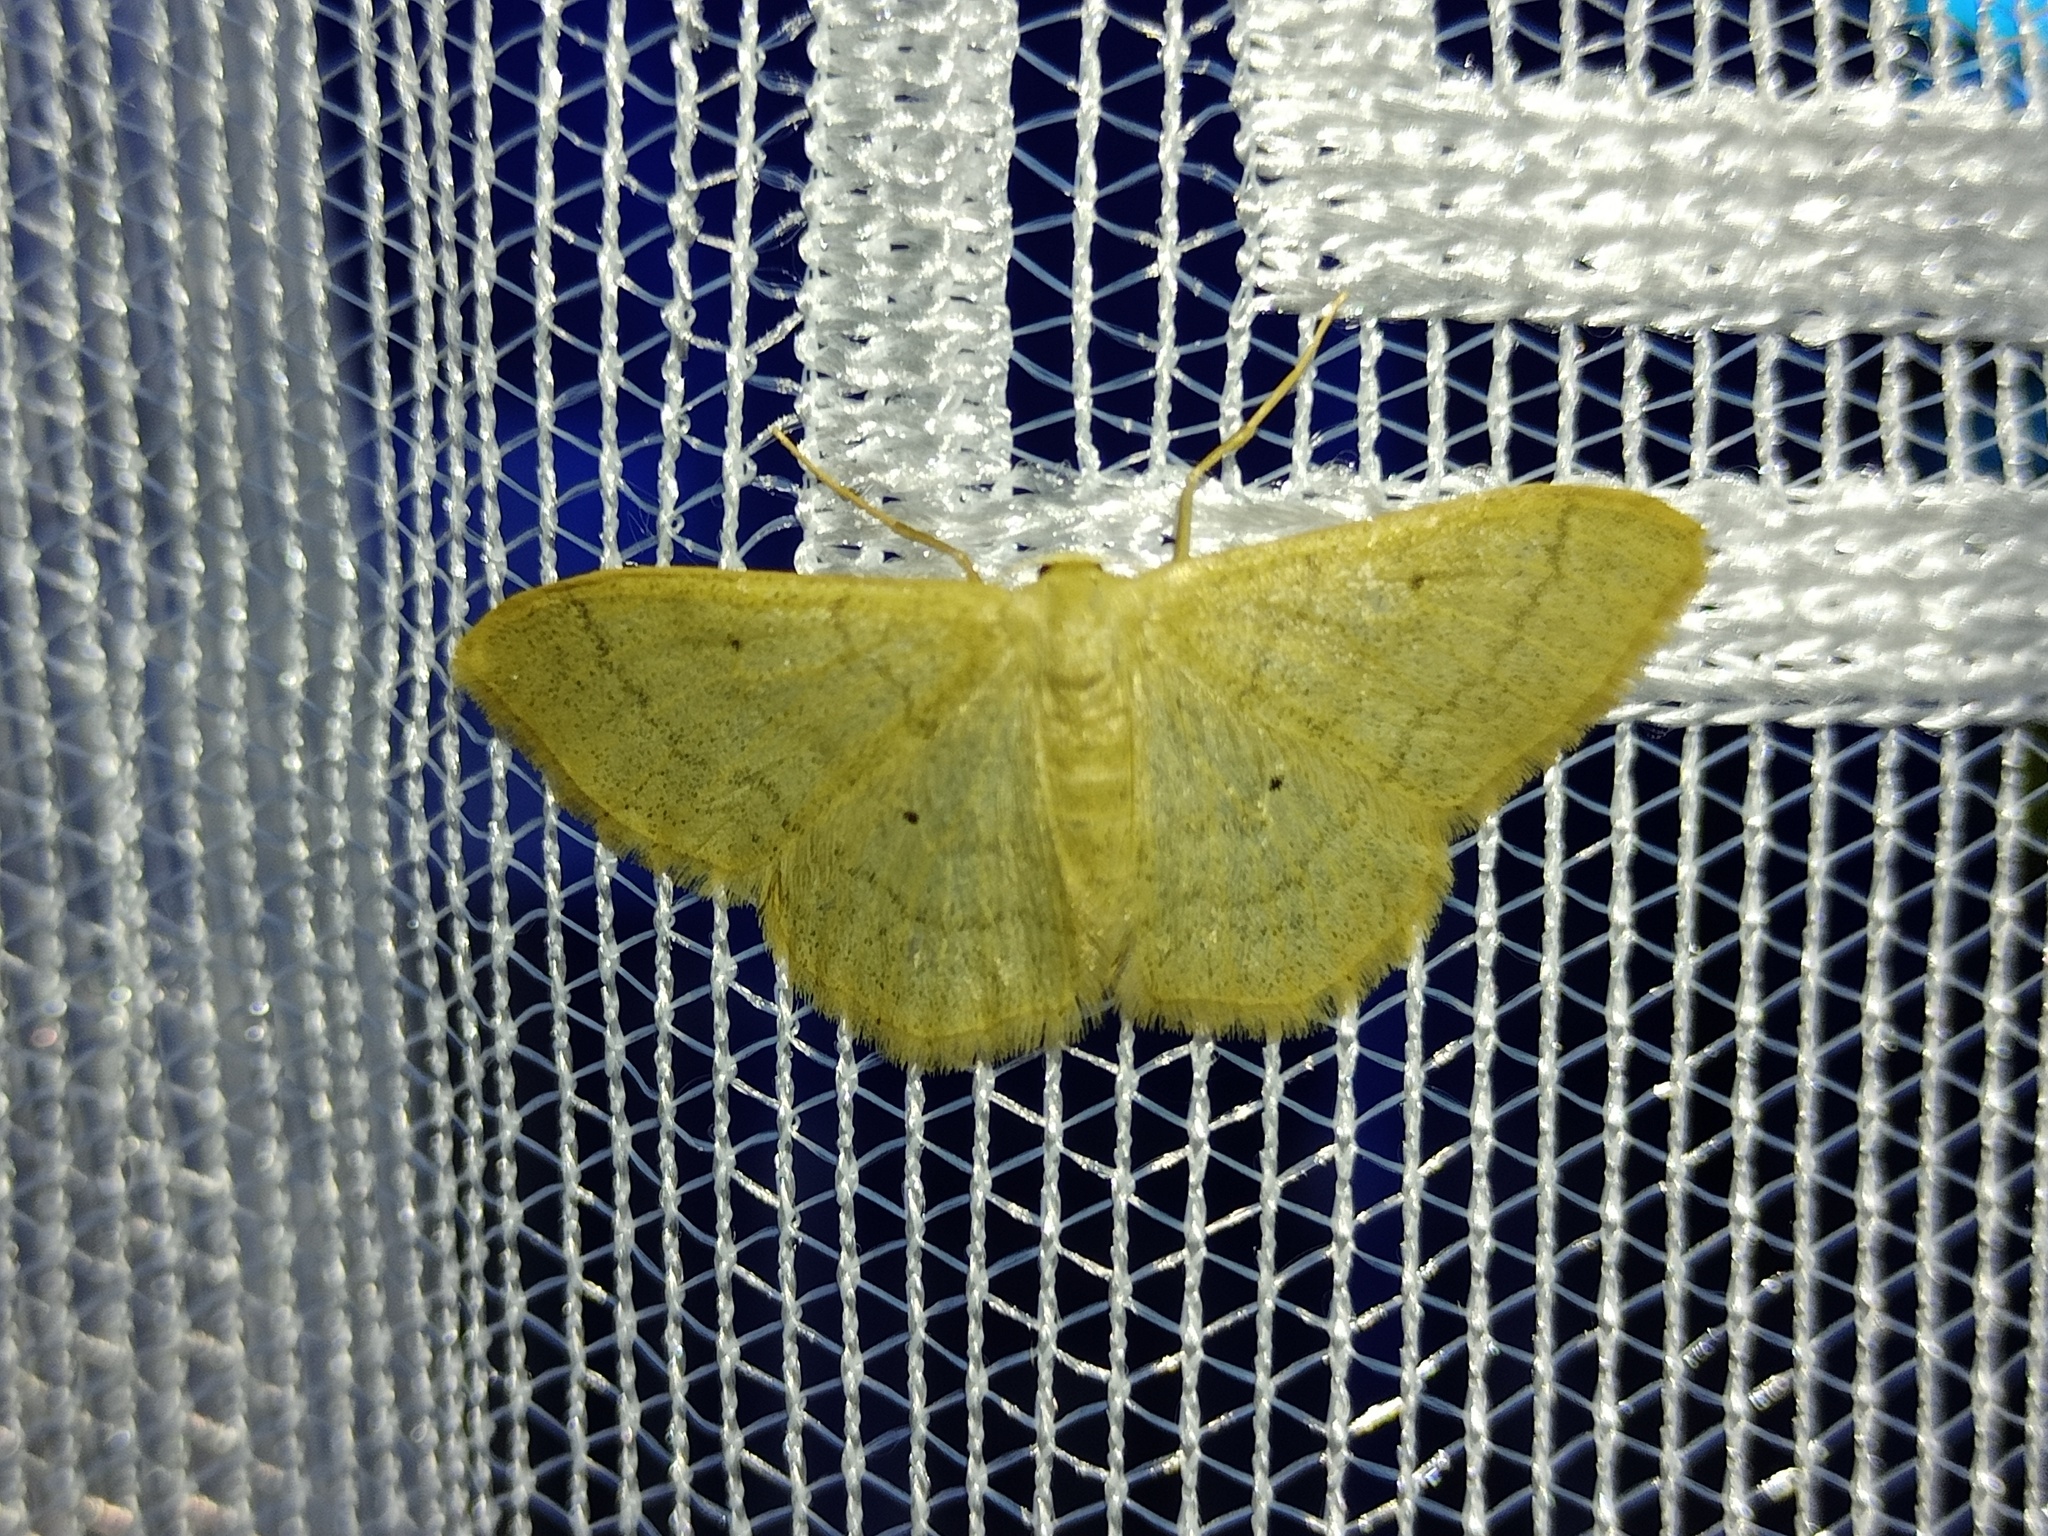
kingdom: Animalia
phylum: Arthropoda
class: Insecta
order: Lepidoptera
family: Geometridae
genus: Idaea
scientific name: Idaea straminata
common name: Plain wave
